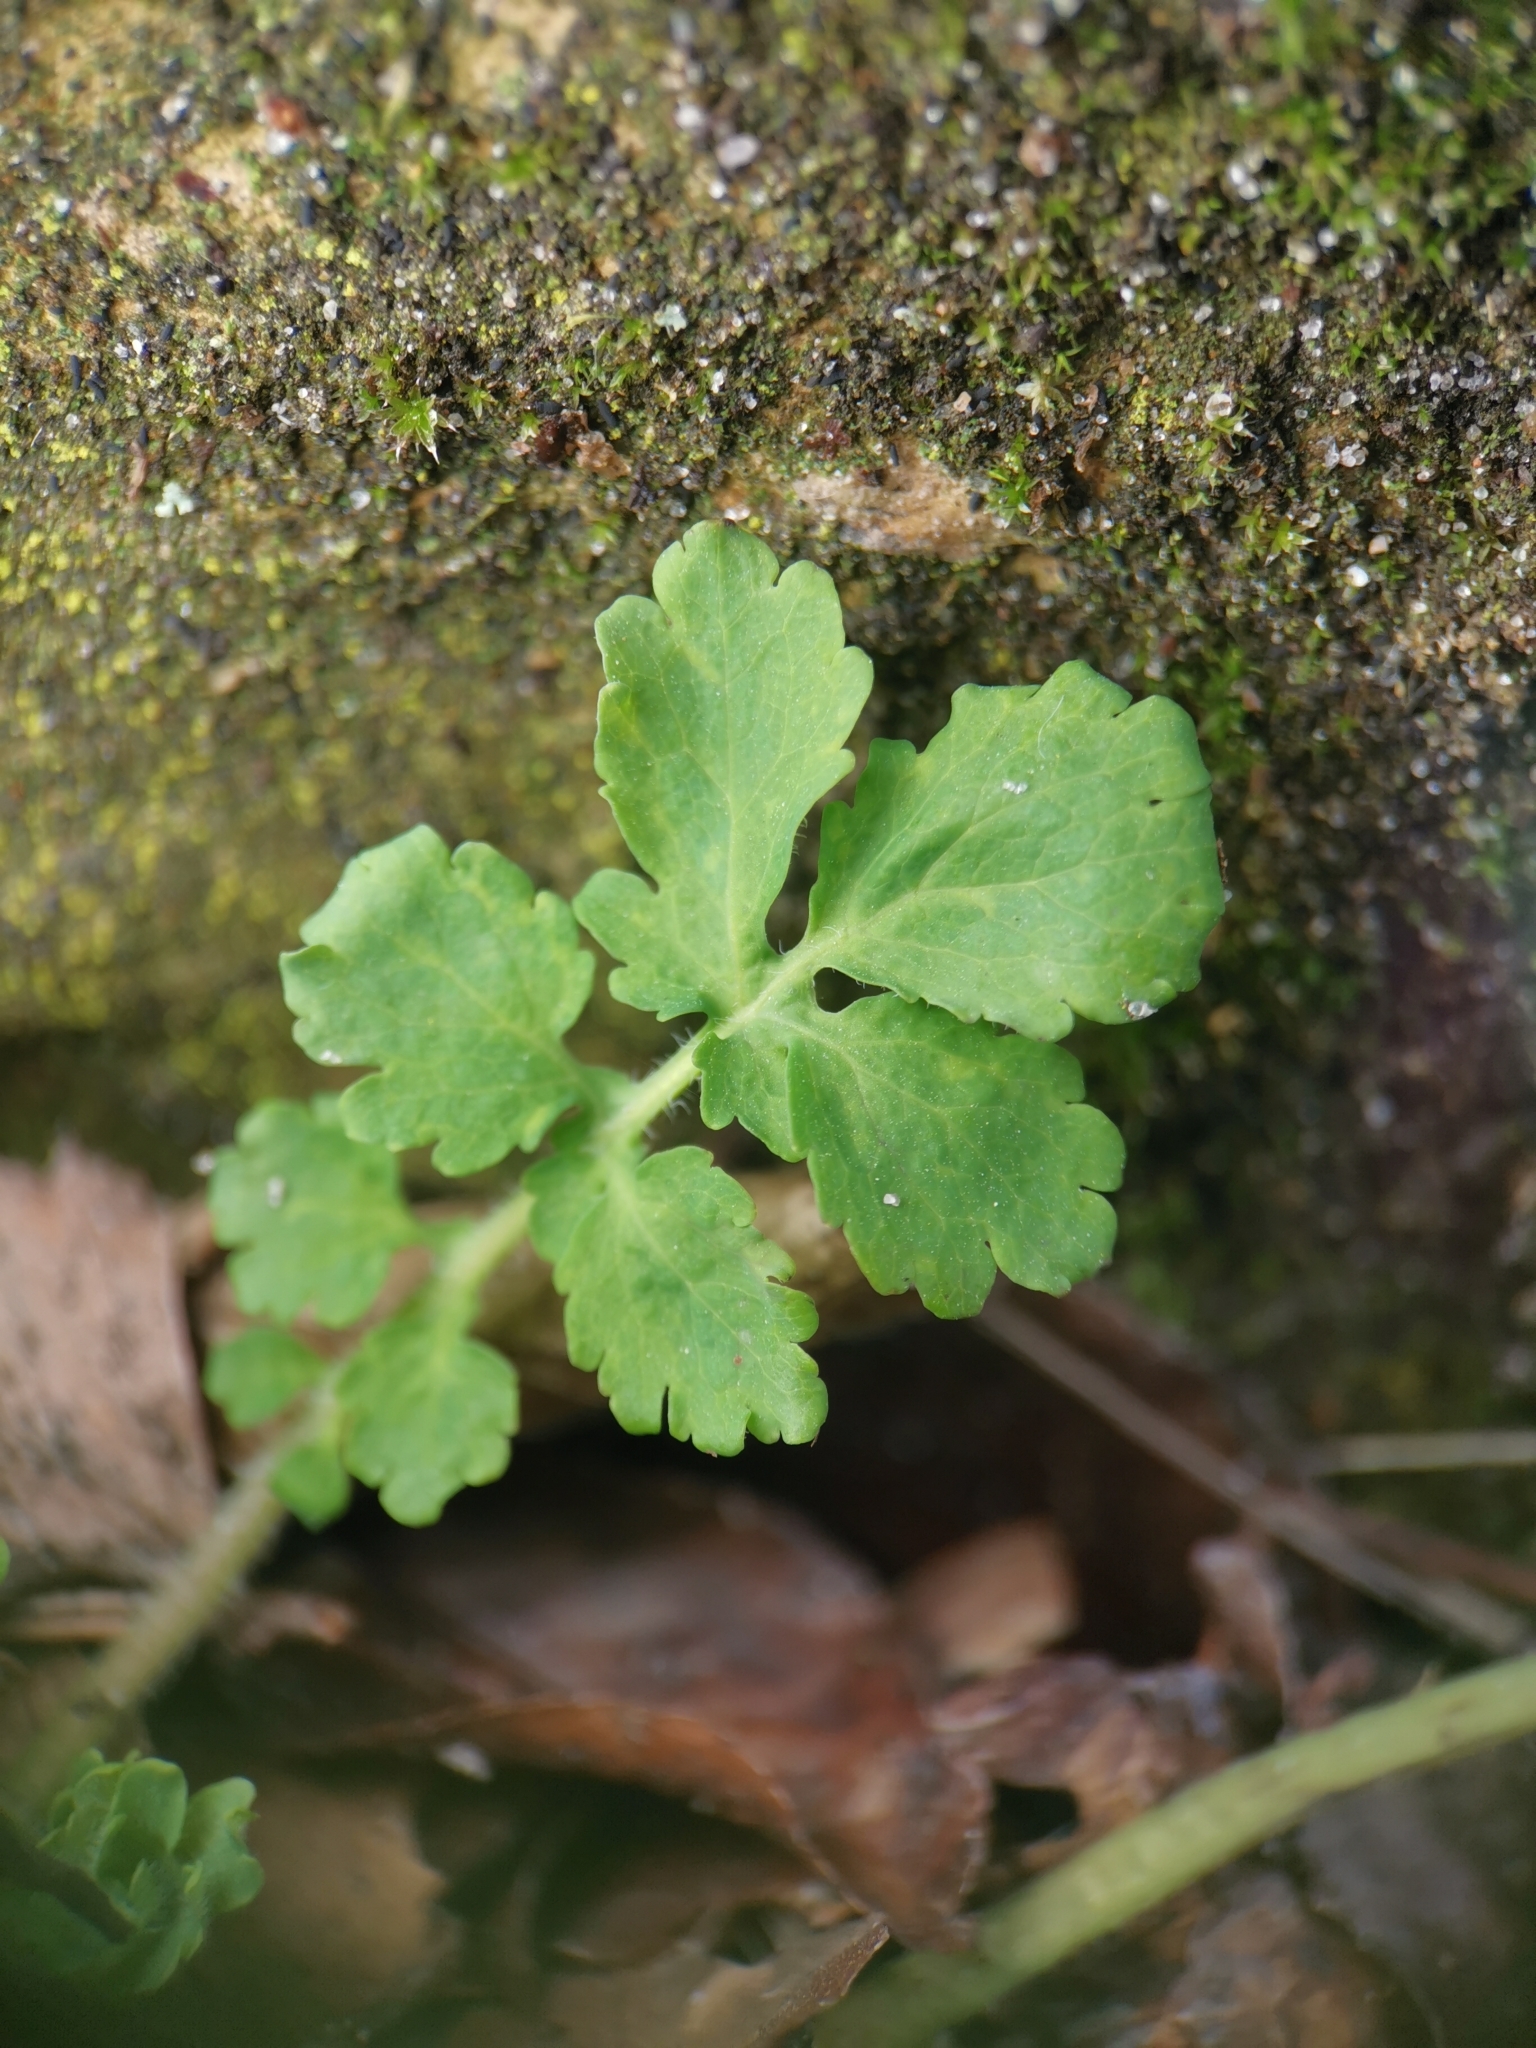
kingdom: Plantae
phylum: Tracheophyta
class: Magnoliopsida
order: Ranunculales
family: Papaveraceae
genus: Chelidonium
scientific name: Chelidonium majus
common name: Greater celandine
